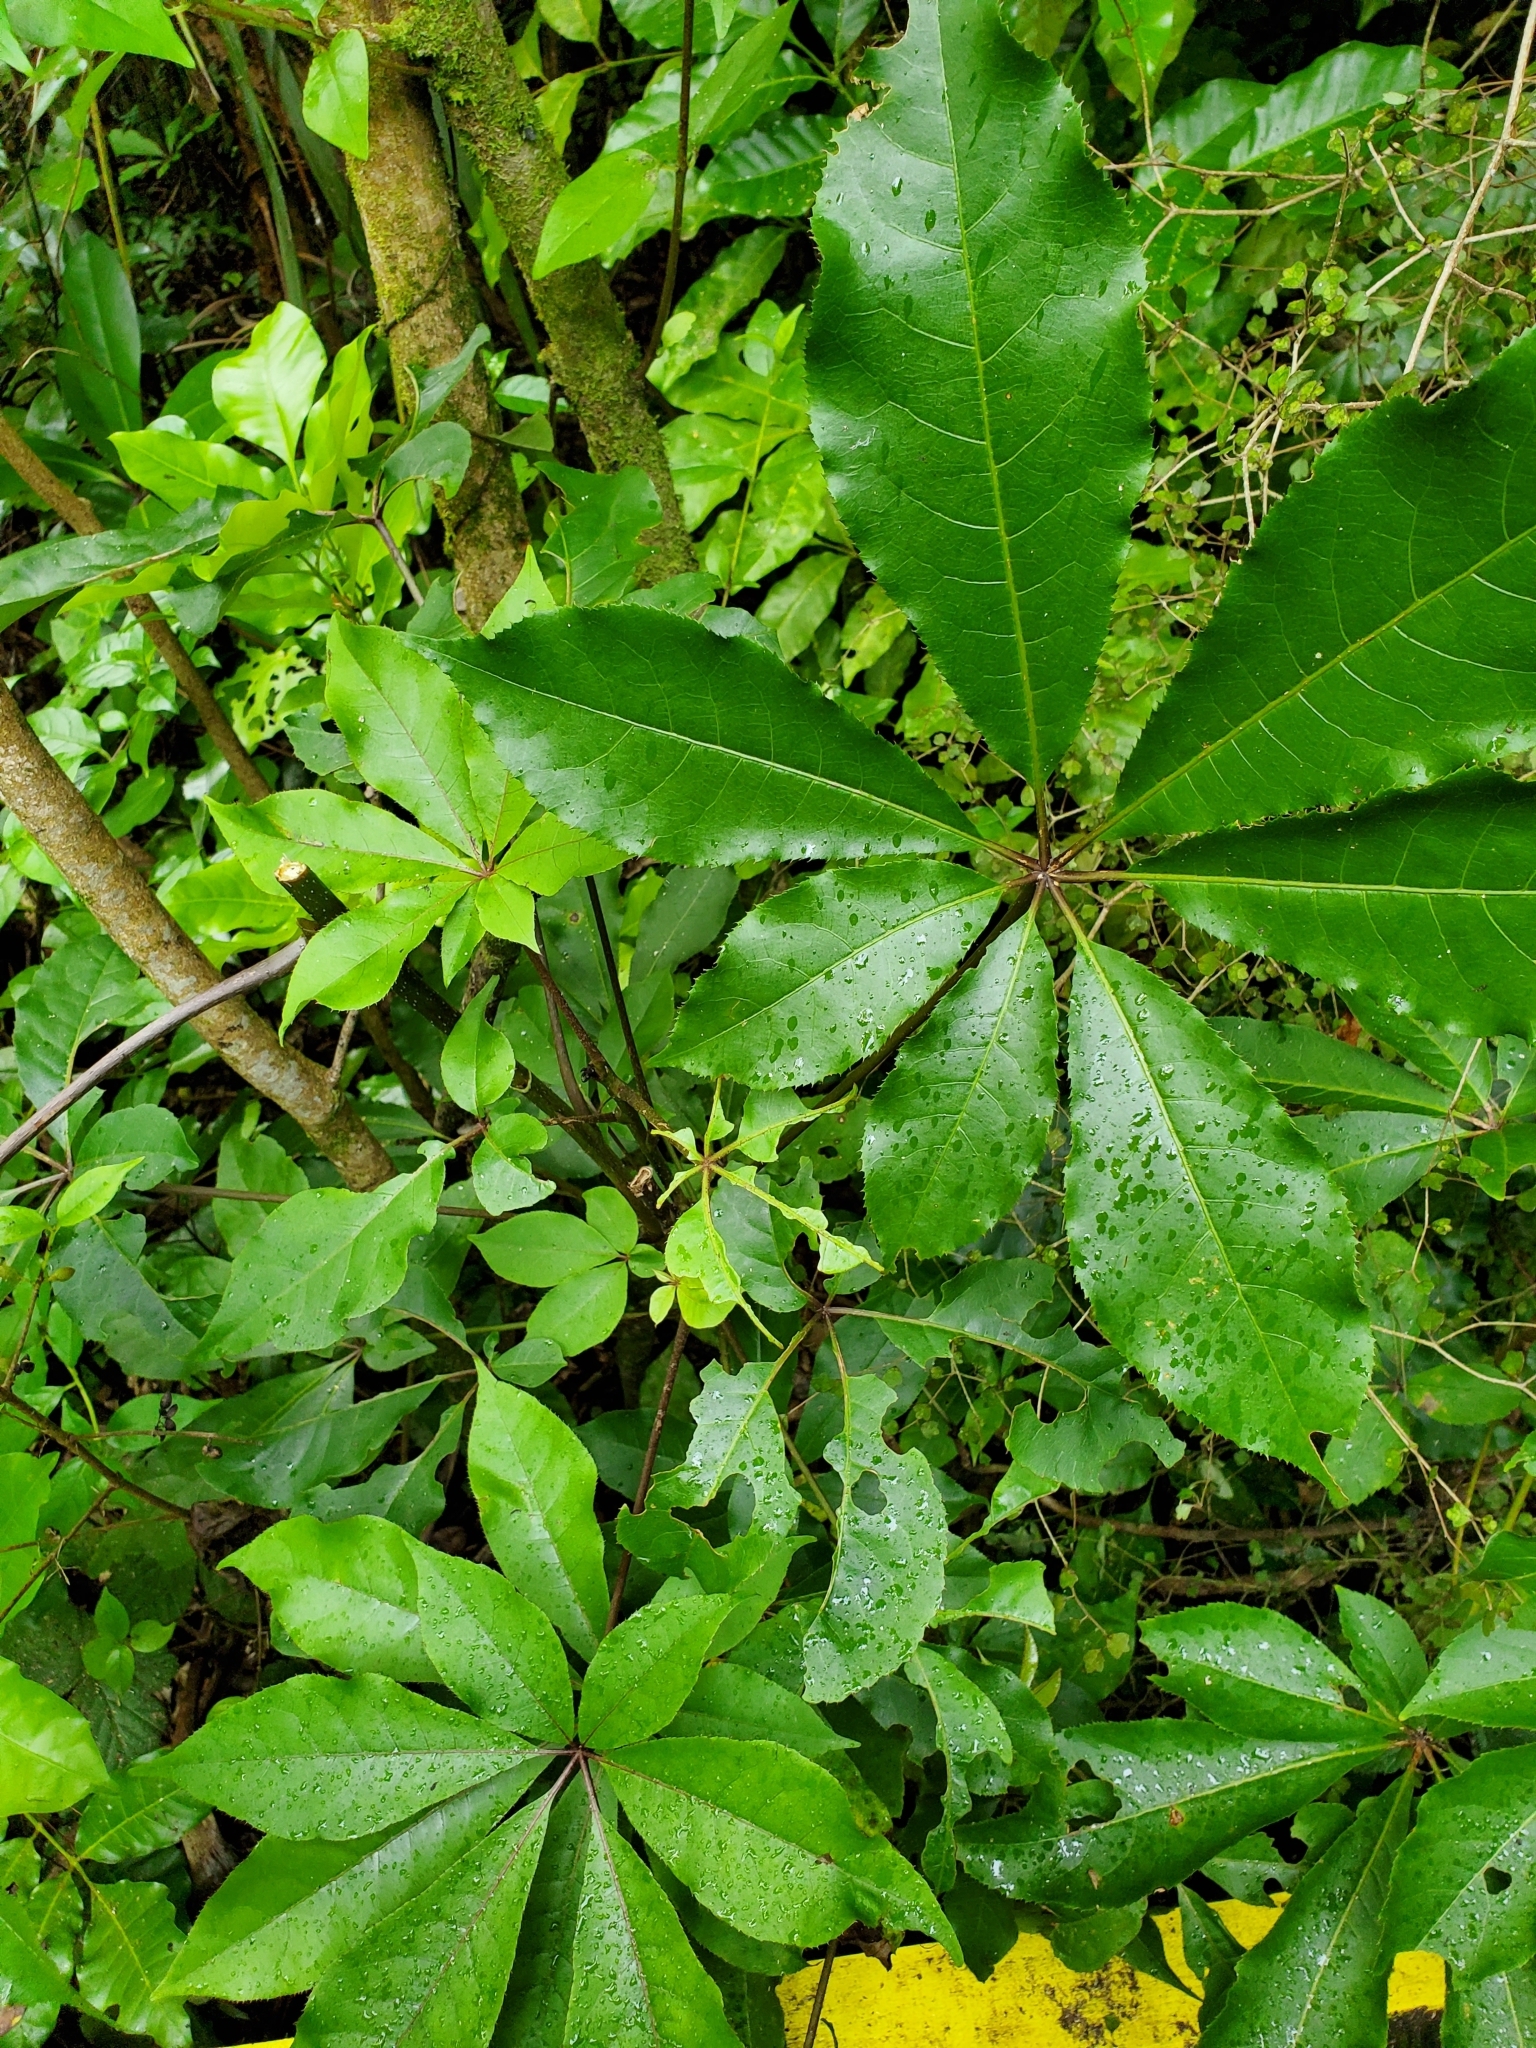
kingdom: Plantae
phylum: Tracheophyta
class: Magnoliopsida
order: Apiales
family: Araliaceae
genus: Schefflera
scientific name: Schefflera digitata
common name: Pate
